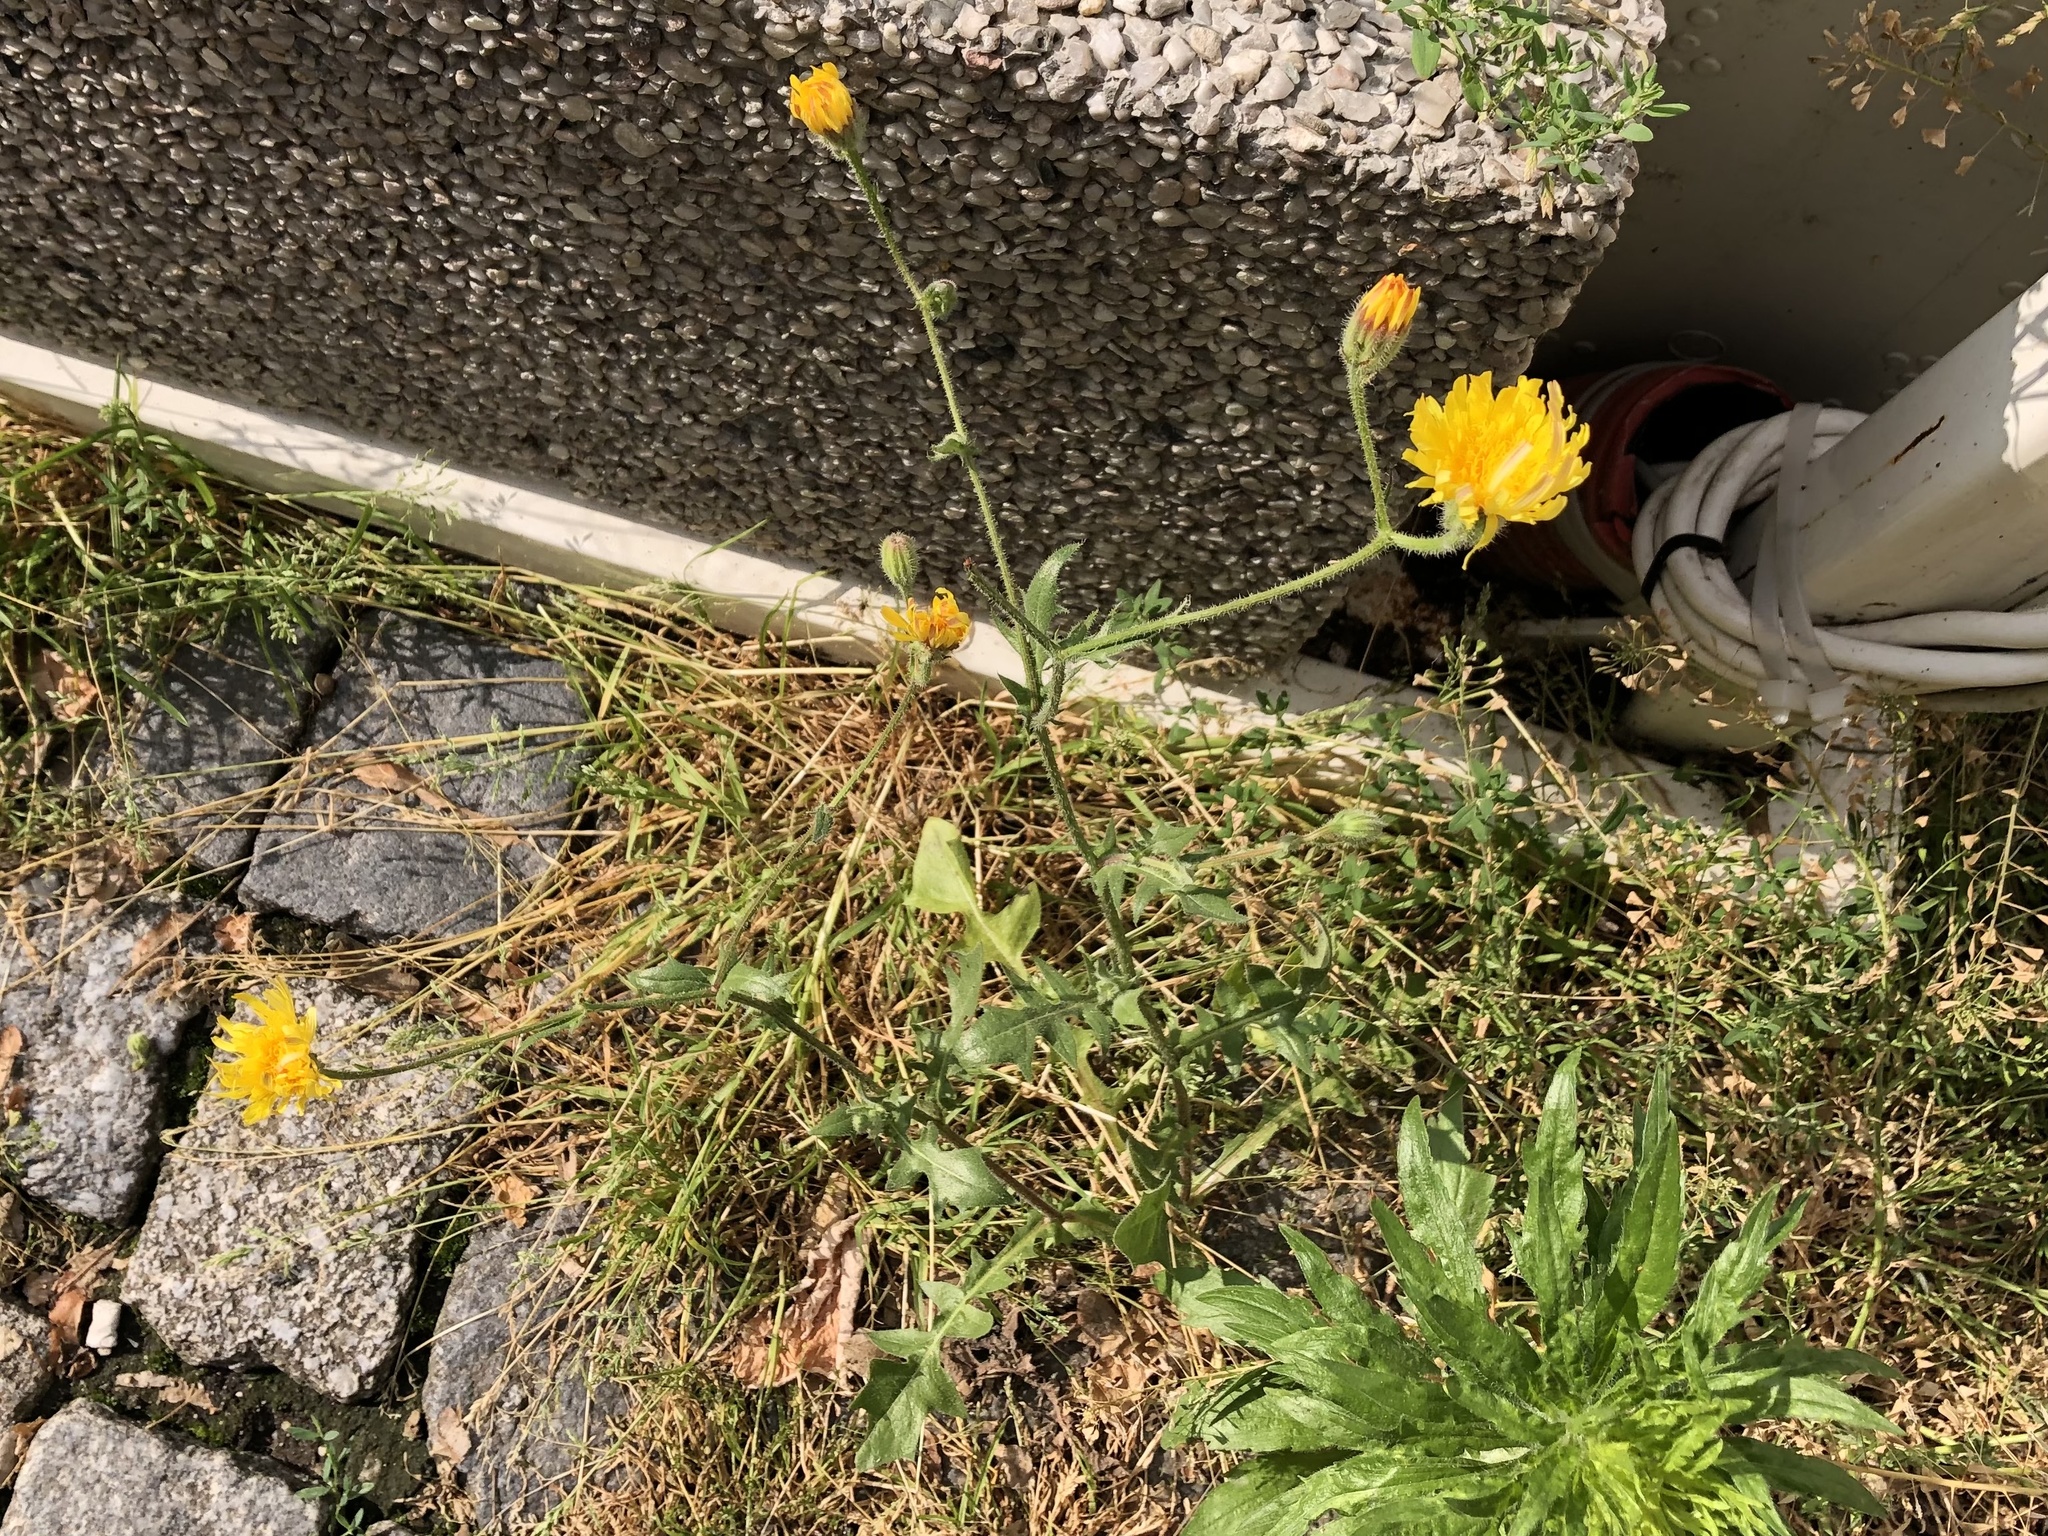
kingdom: Plantae
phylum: Tracheophyta
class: Magnoliopsida
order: Asterales
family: Asteraceae
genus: Crepis
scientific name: Crepis foetida
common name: Stinking hawk's-beard
